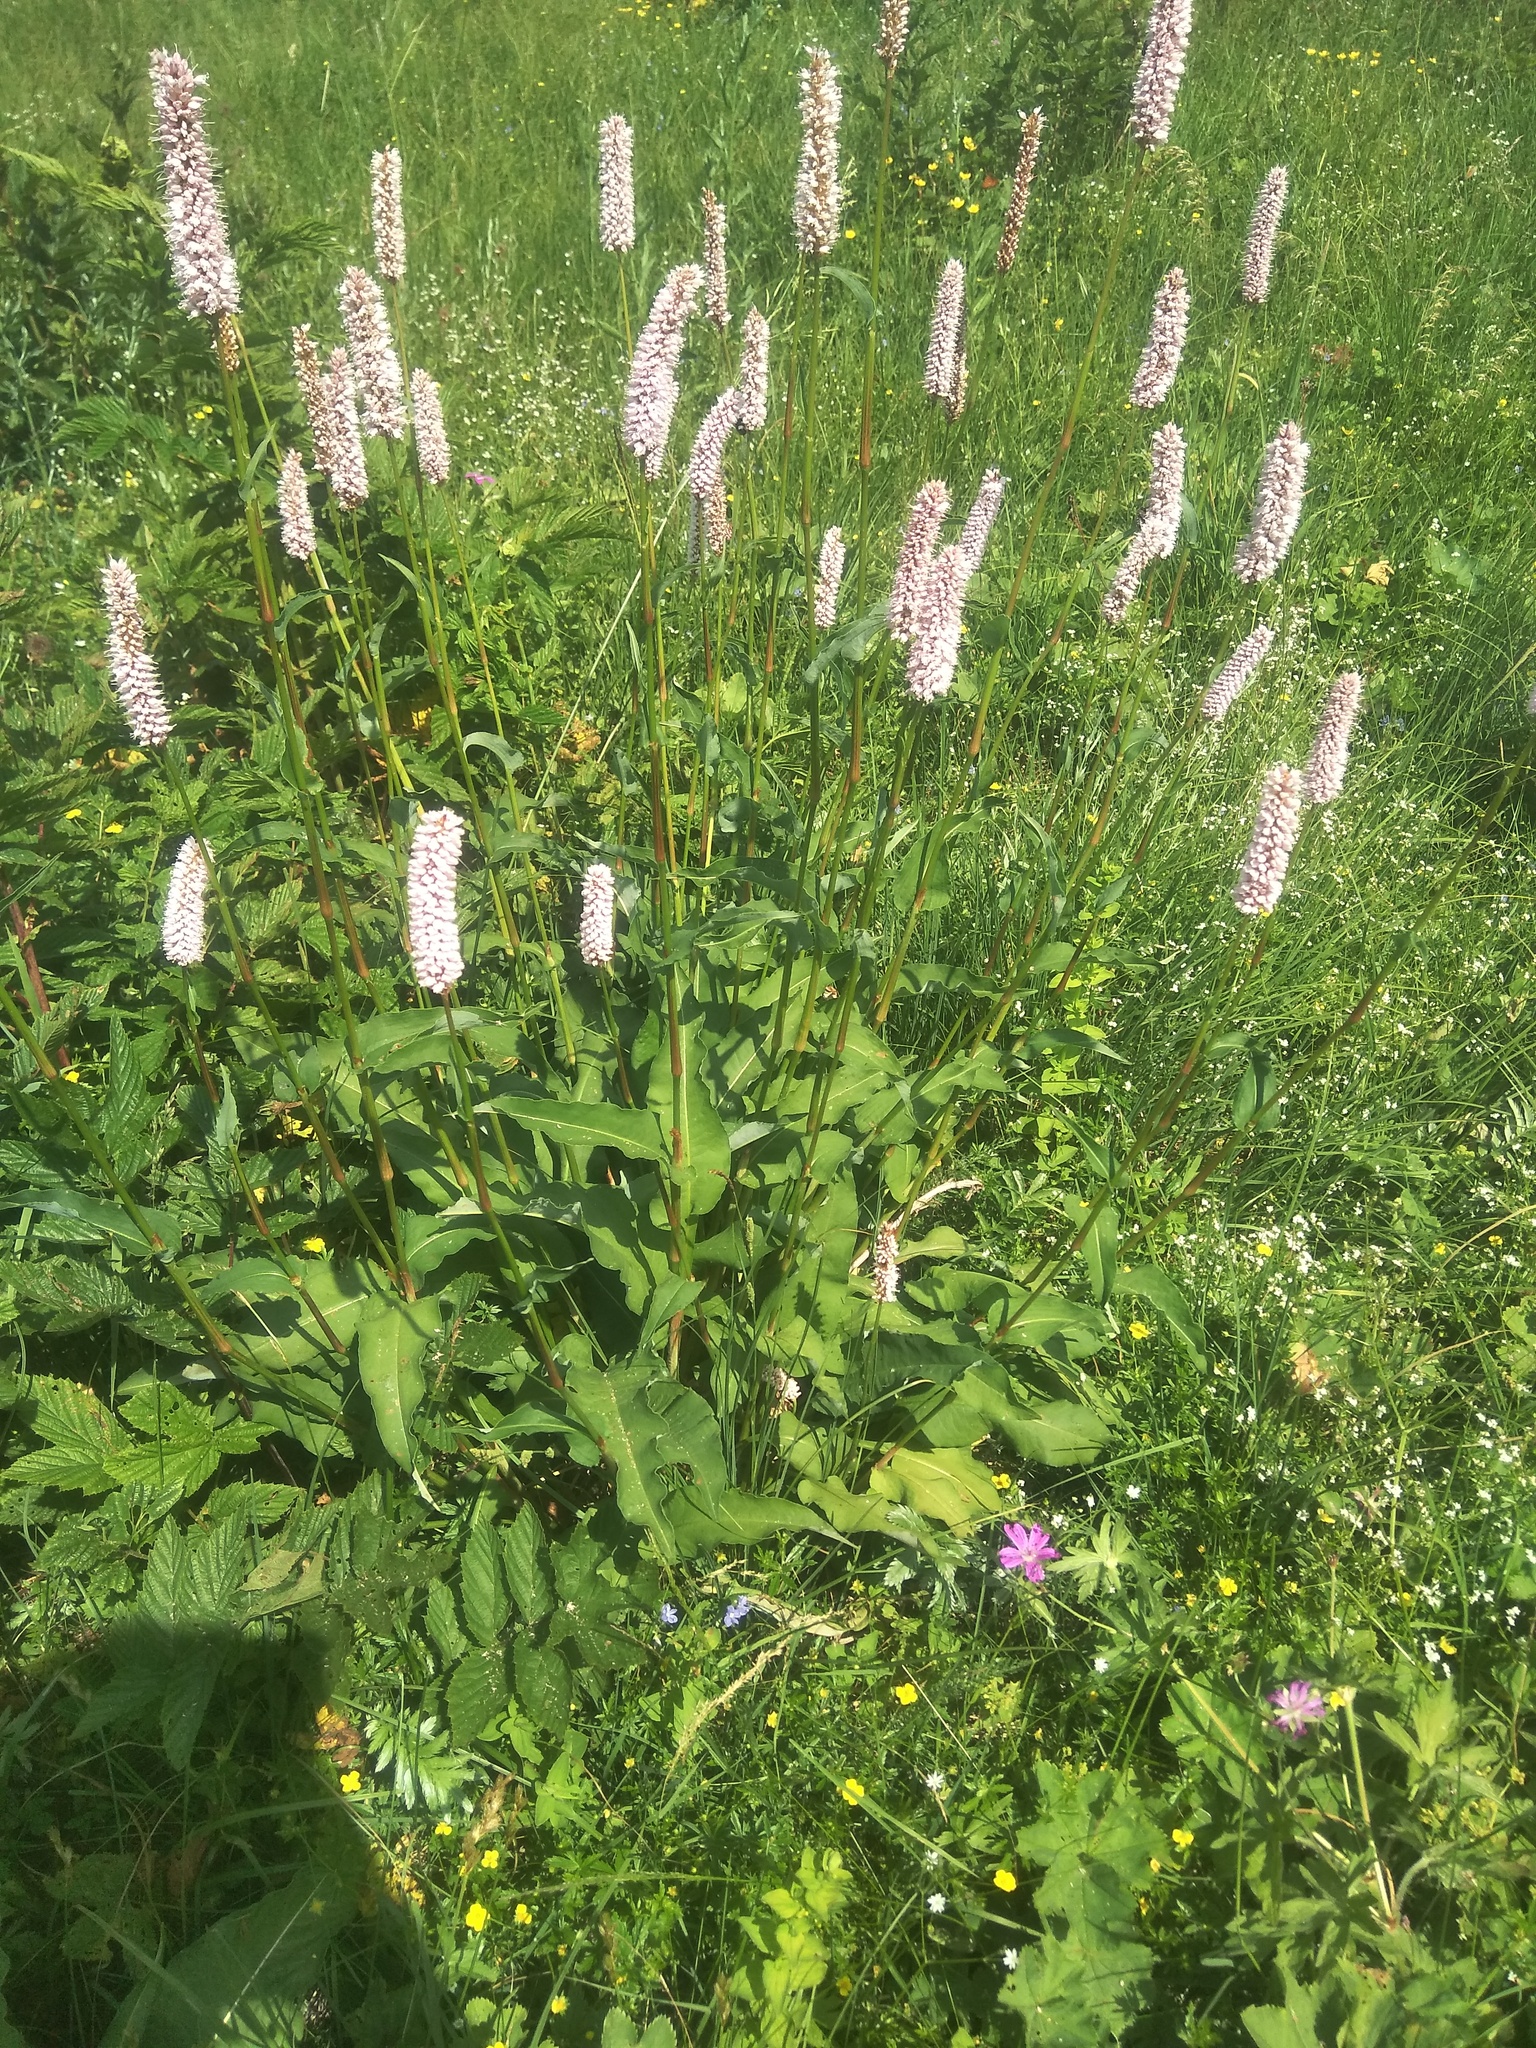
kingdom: Plantae
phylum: Tracheophyta
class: Magnoliopsida
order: Caryophyllales
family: Polygonaceae
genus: Bistorta
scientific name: Bistorta officinalis
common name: Common bistort
